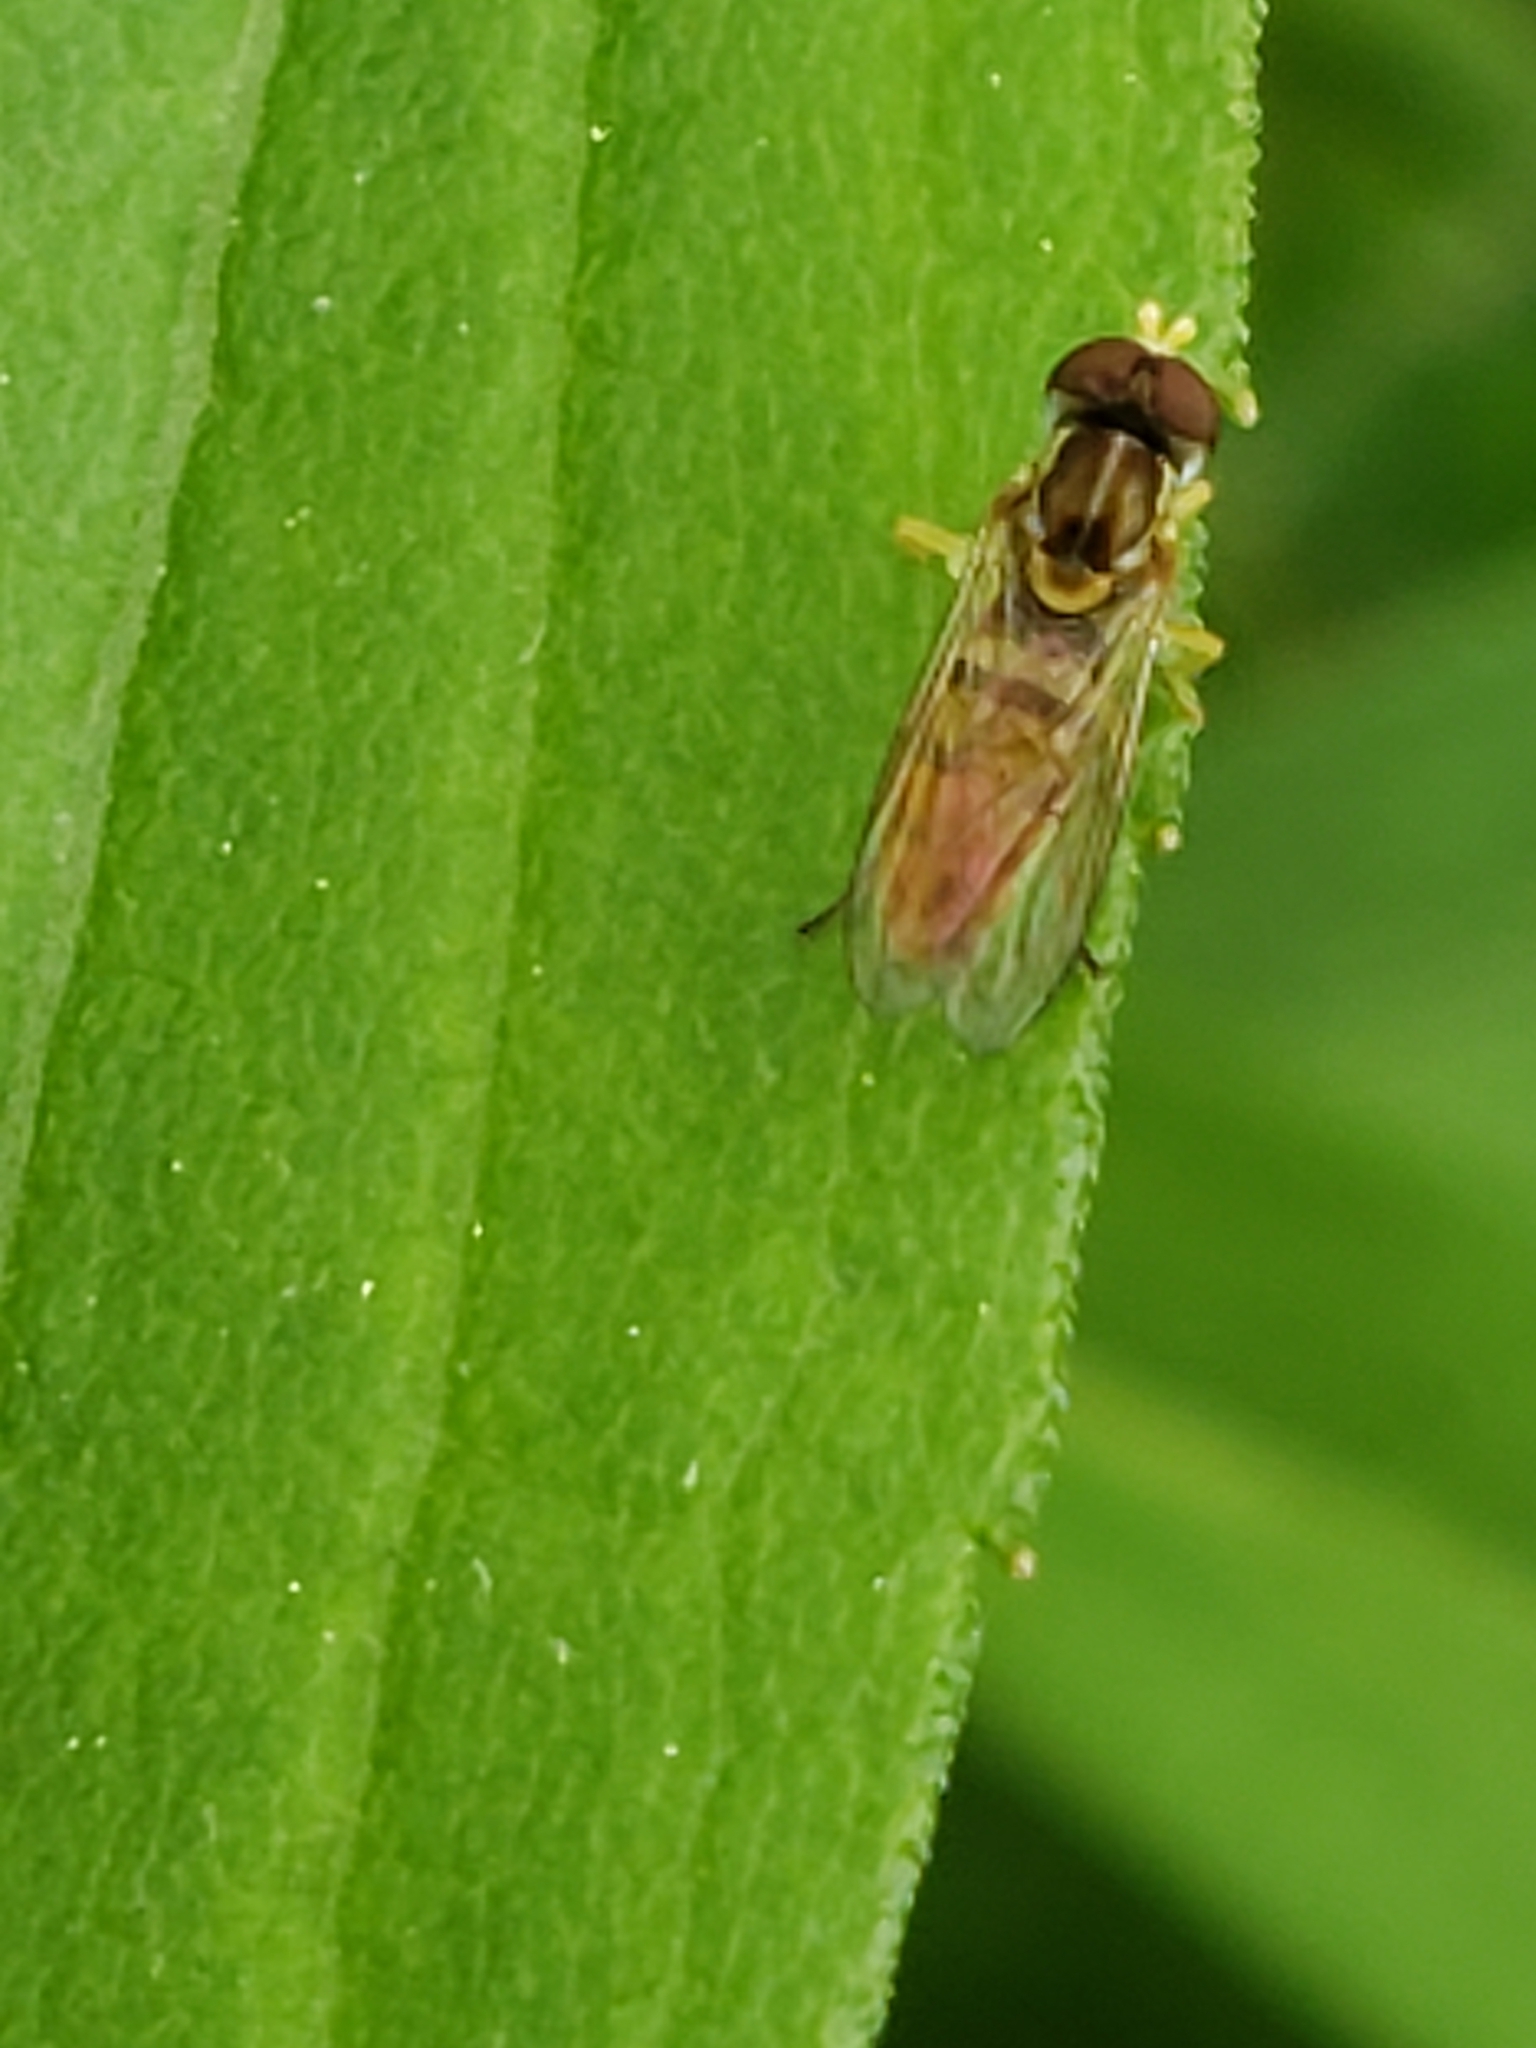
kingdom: Animalia
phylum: Arthropoda
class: Insecta
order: Diptera
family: Syrphidae
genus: Toxomerus
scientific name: Toxomerus marginatus
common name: Syrphid fly
